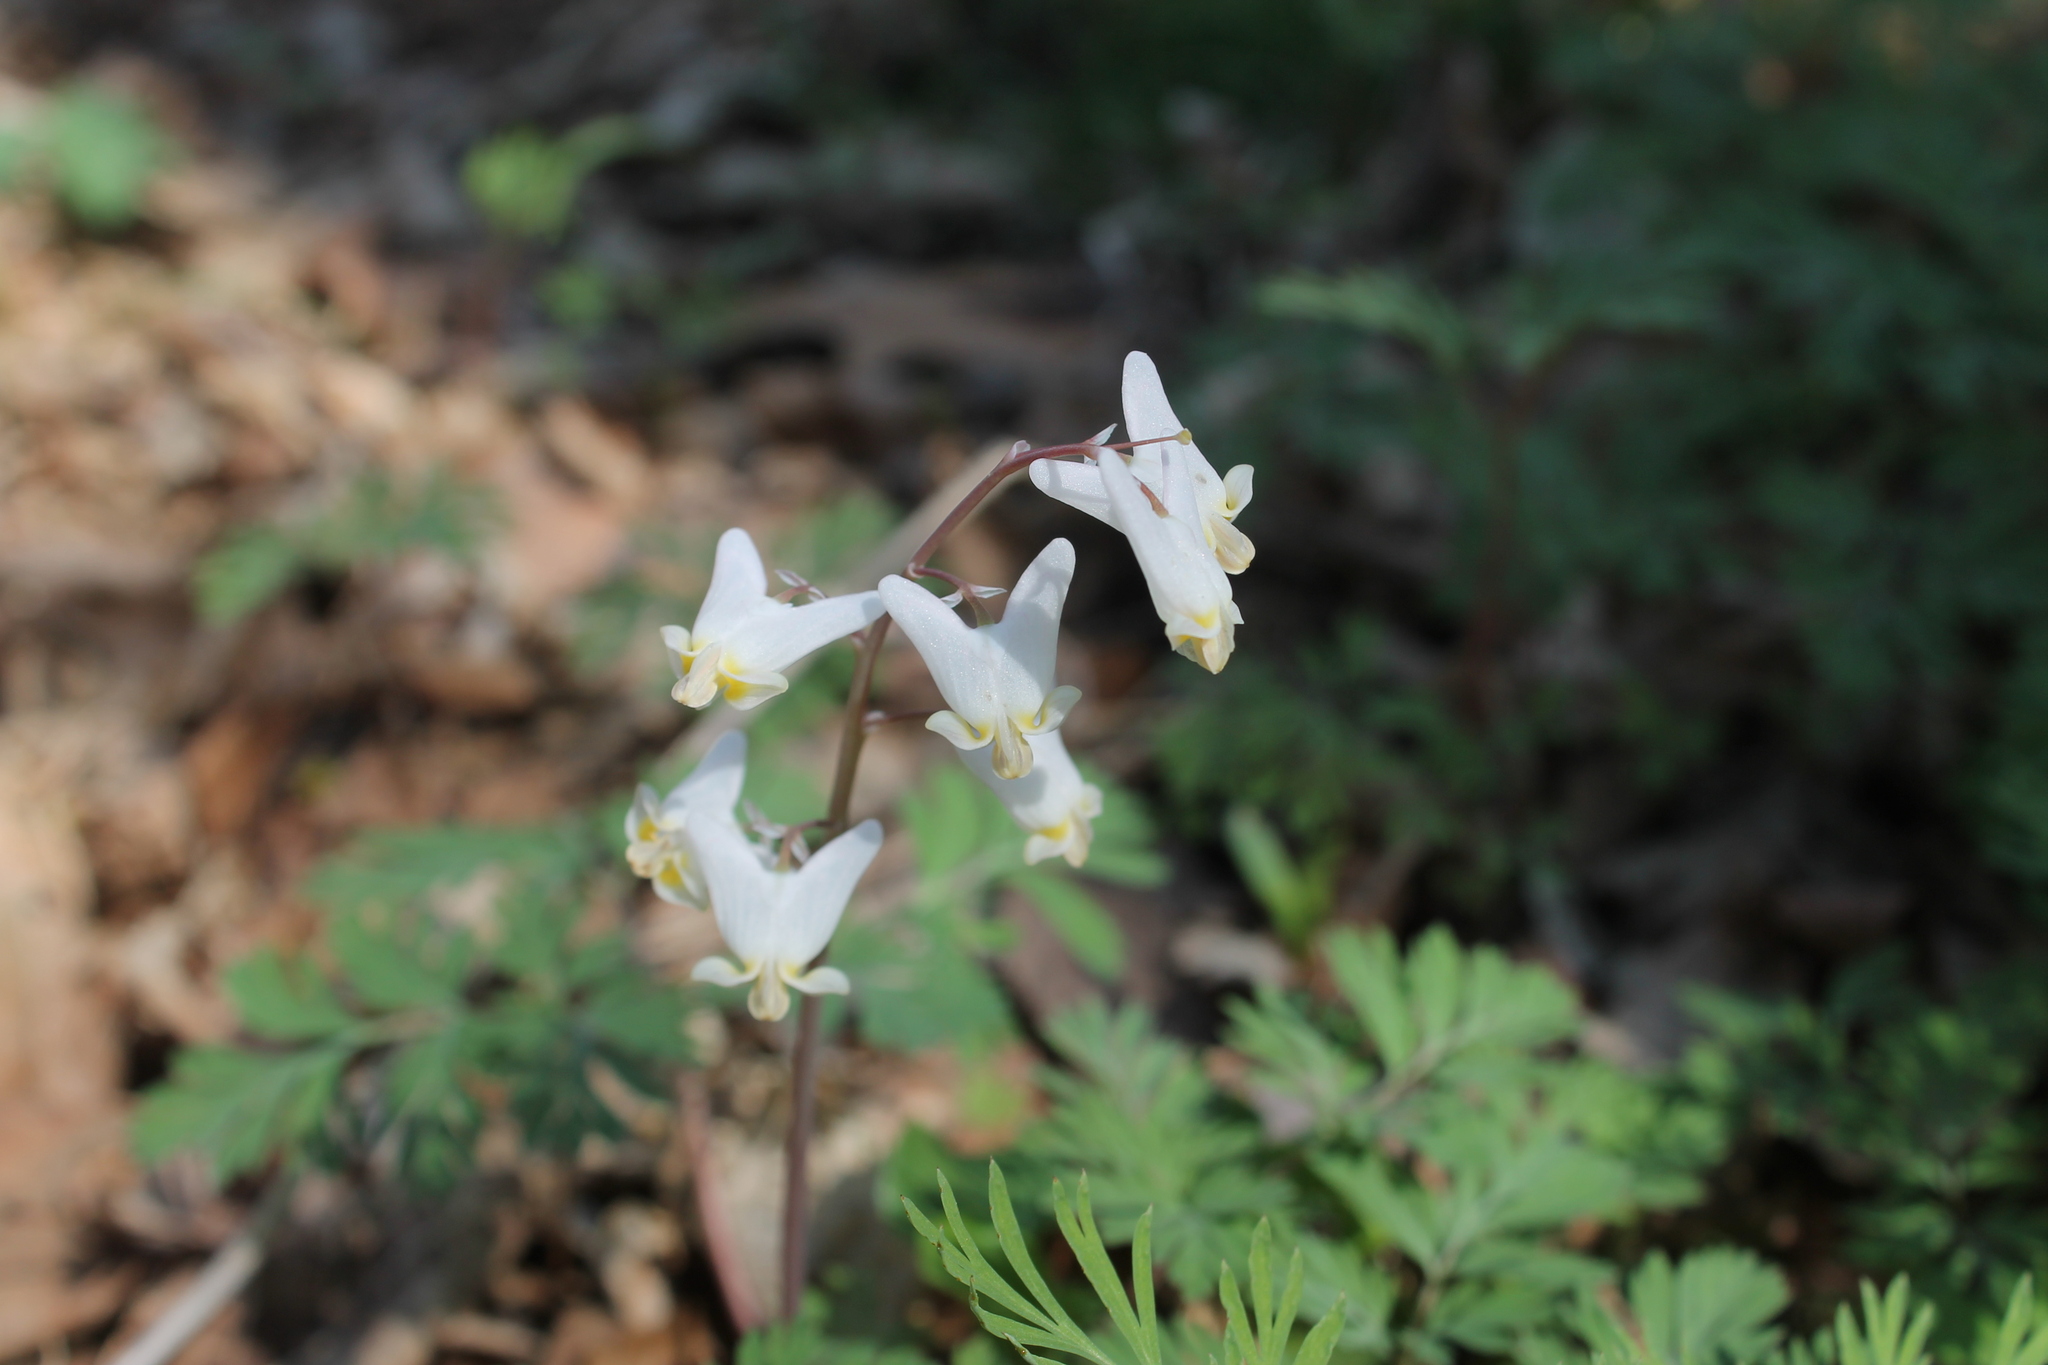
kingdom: Plantae
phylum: Tracheophyta
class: Magnoliopsida
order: Ranunculales
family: Papaveraceae
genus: Dicentra
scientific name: Dicentra cucullaria
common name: Dutchman's breeches
